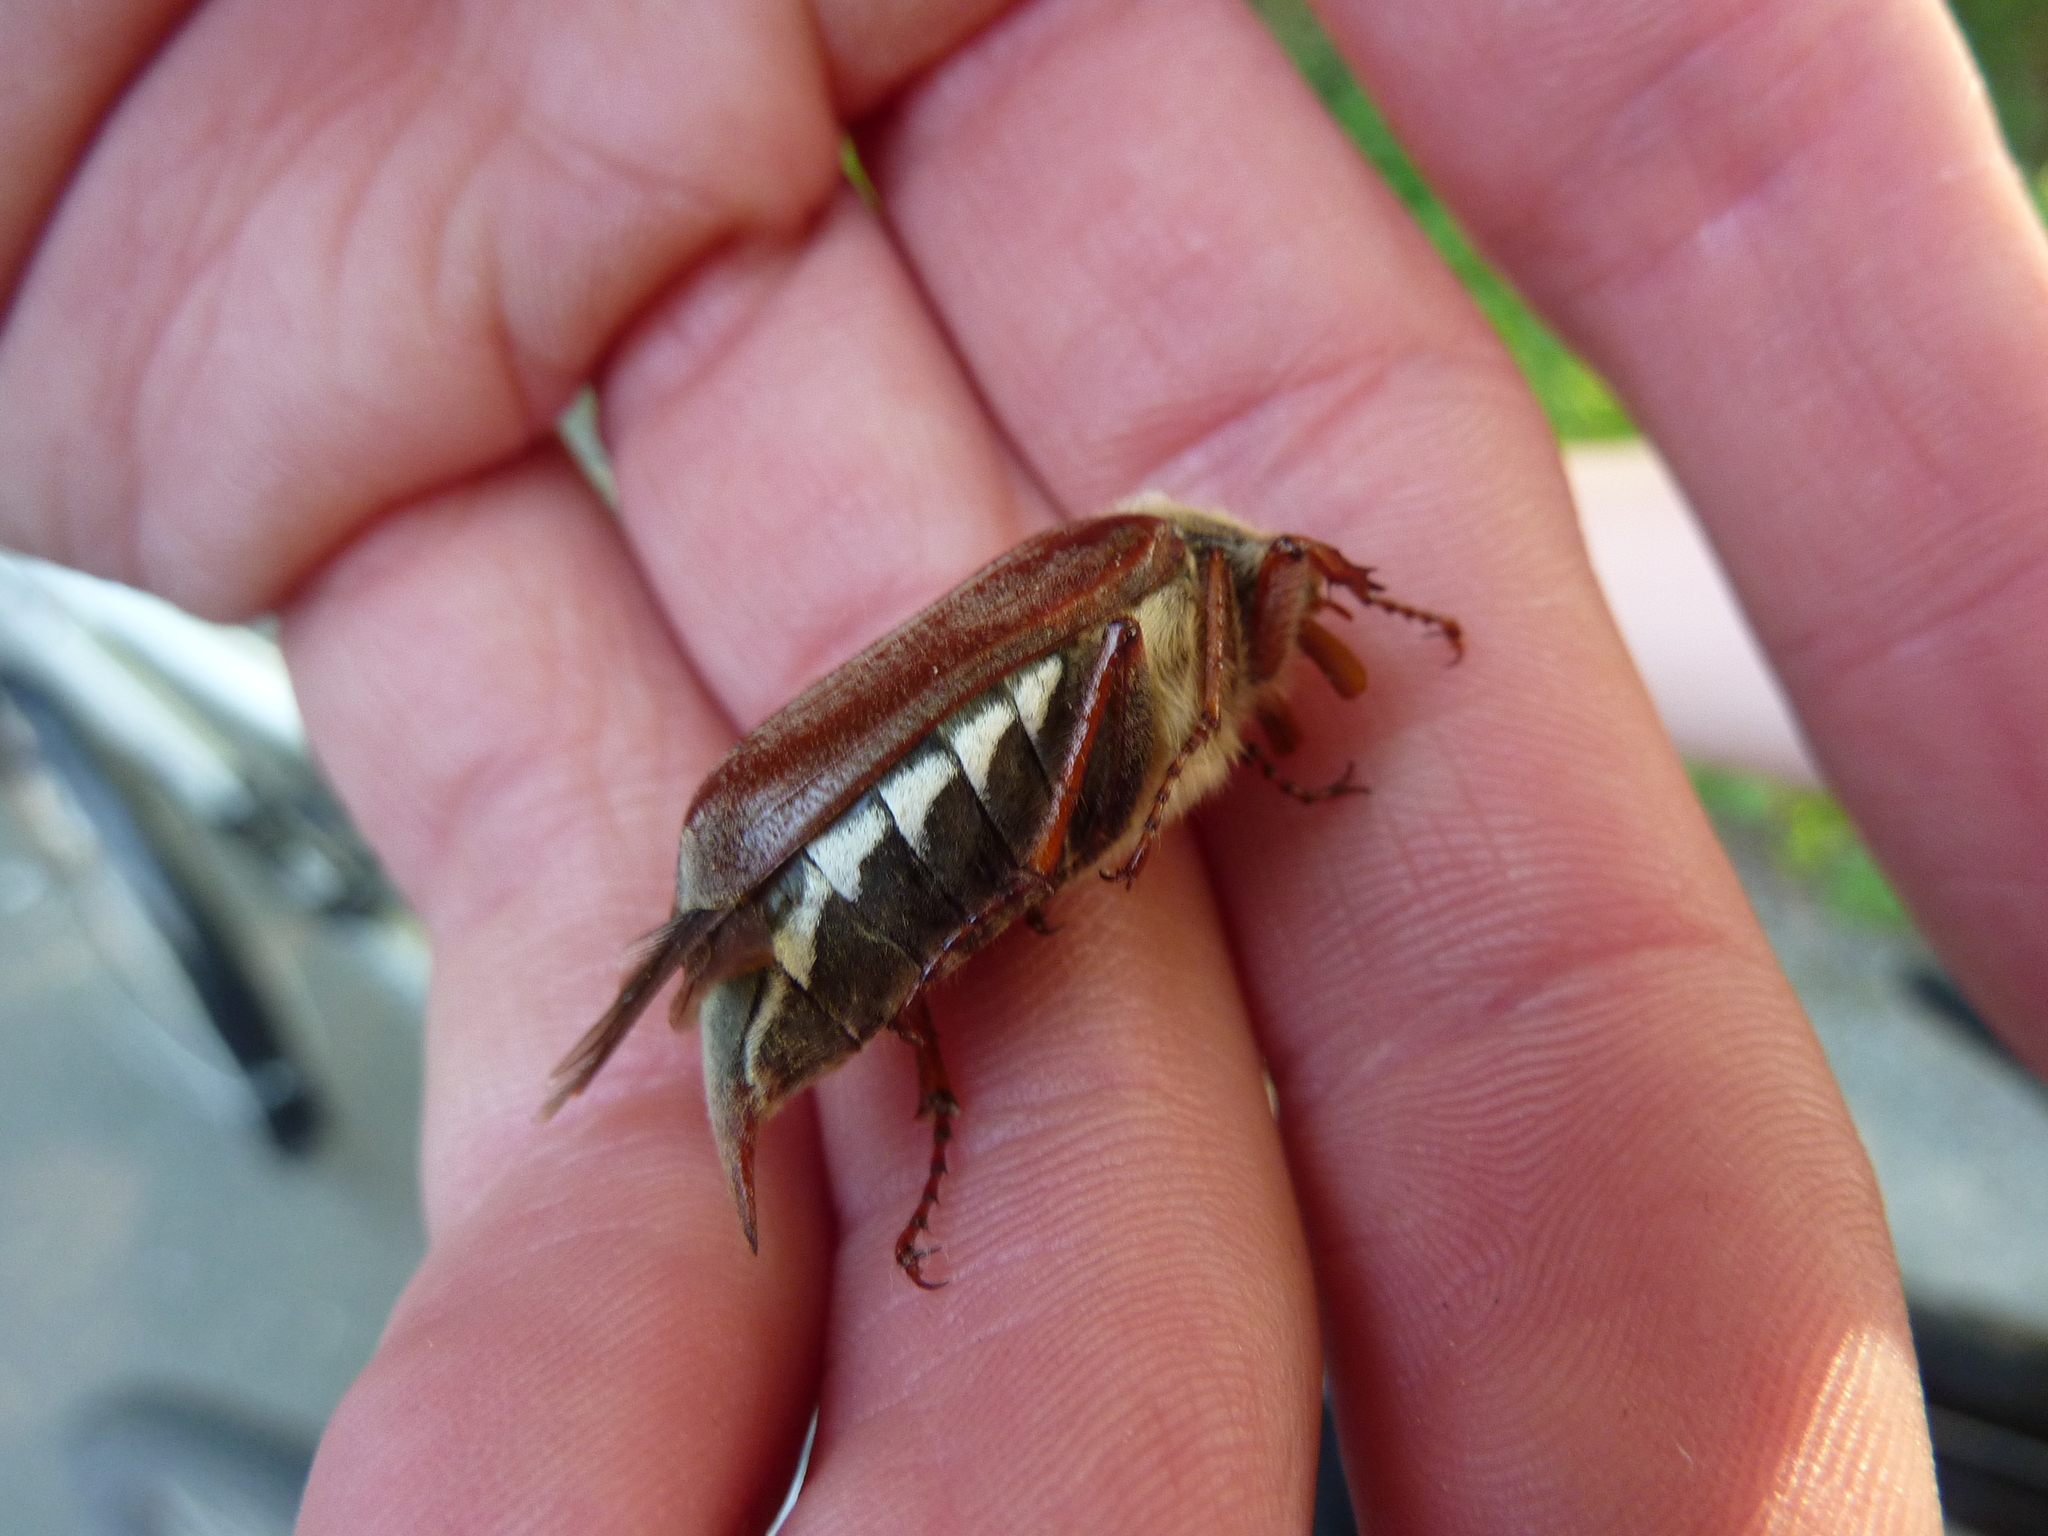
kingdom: Animalia
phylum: Arthropoda
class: Insecta
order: Coleoptera
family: Scarabaeidae
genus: Melolontha
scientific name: Melolontha melolontha
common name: Cockchafer maybeetle
